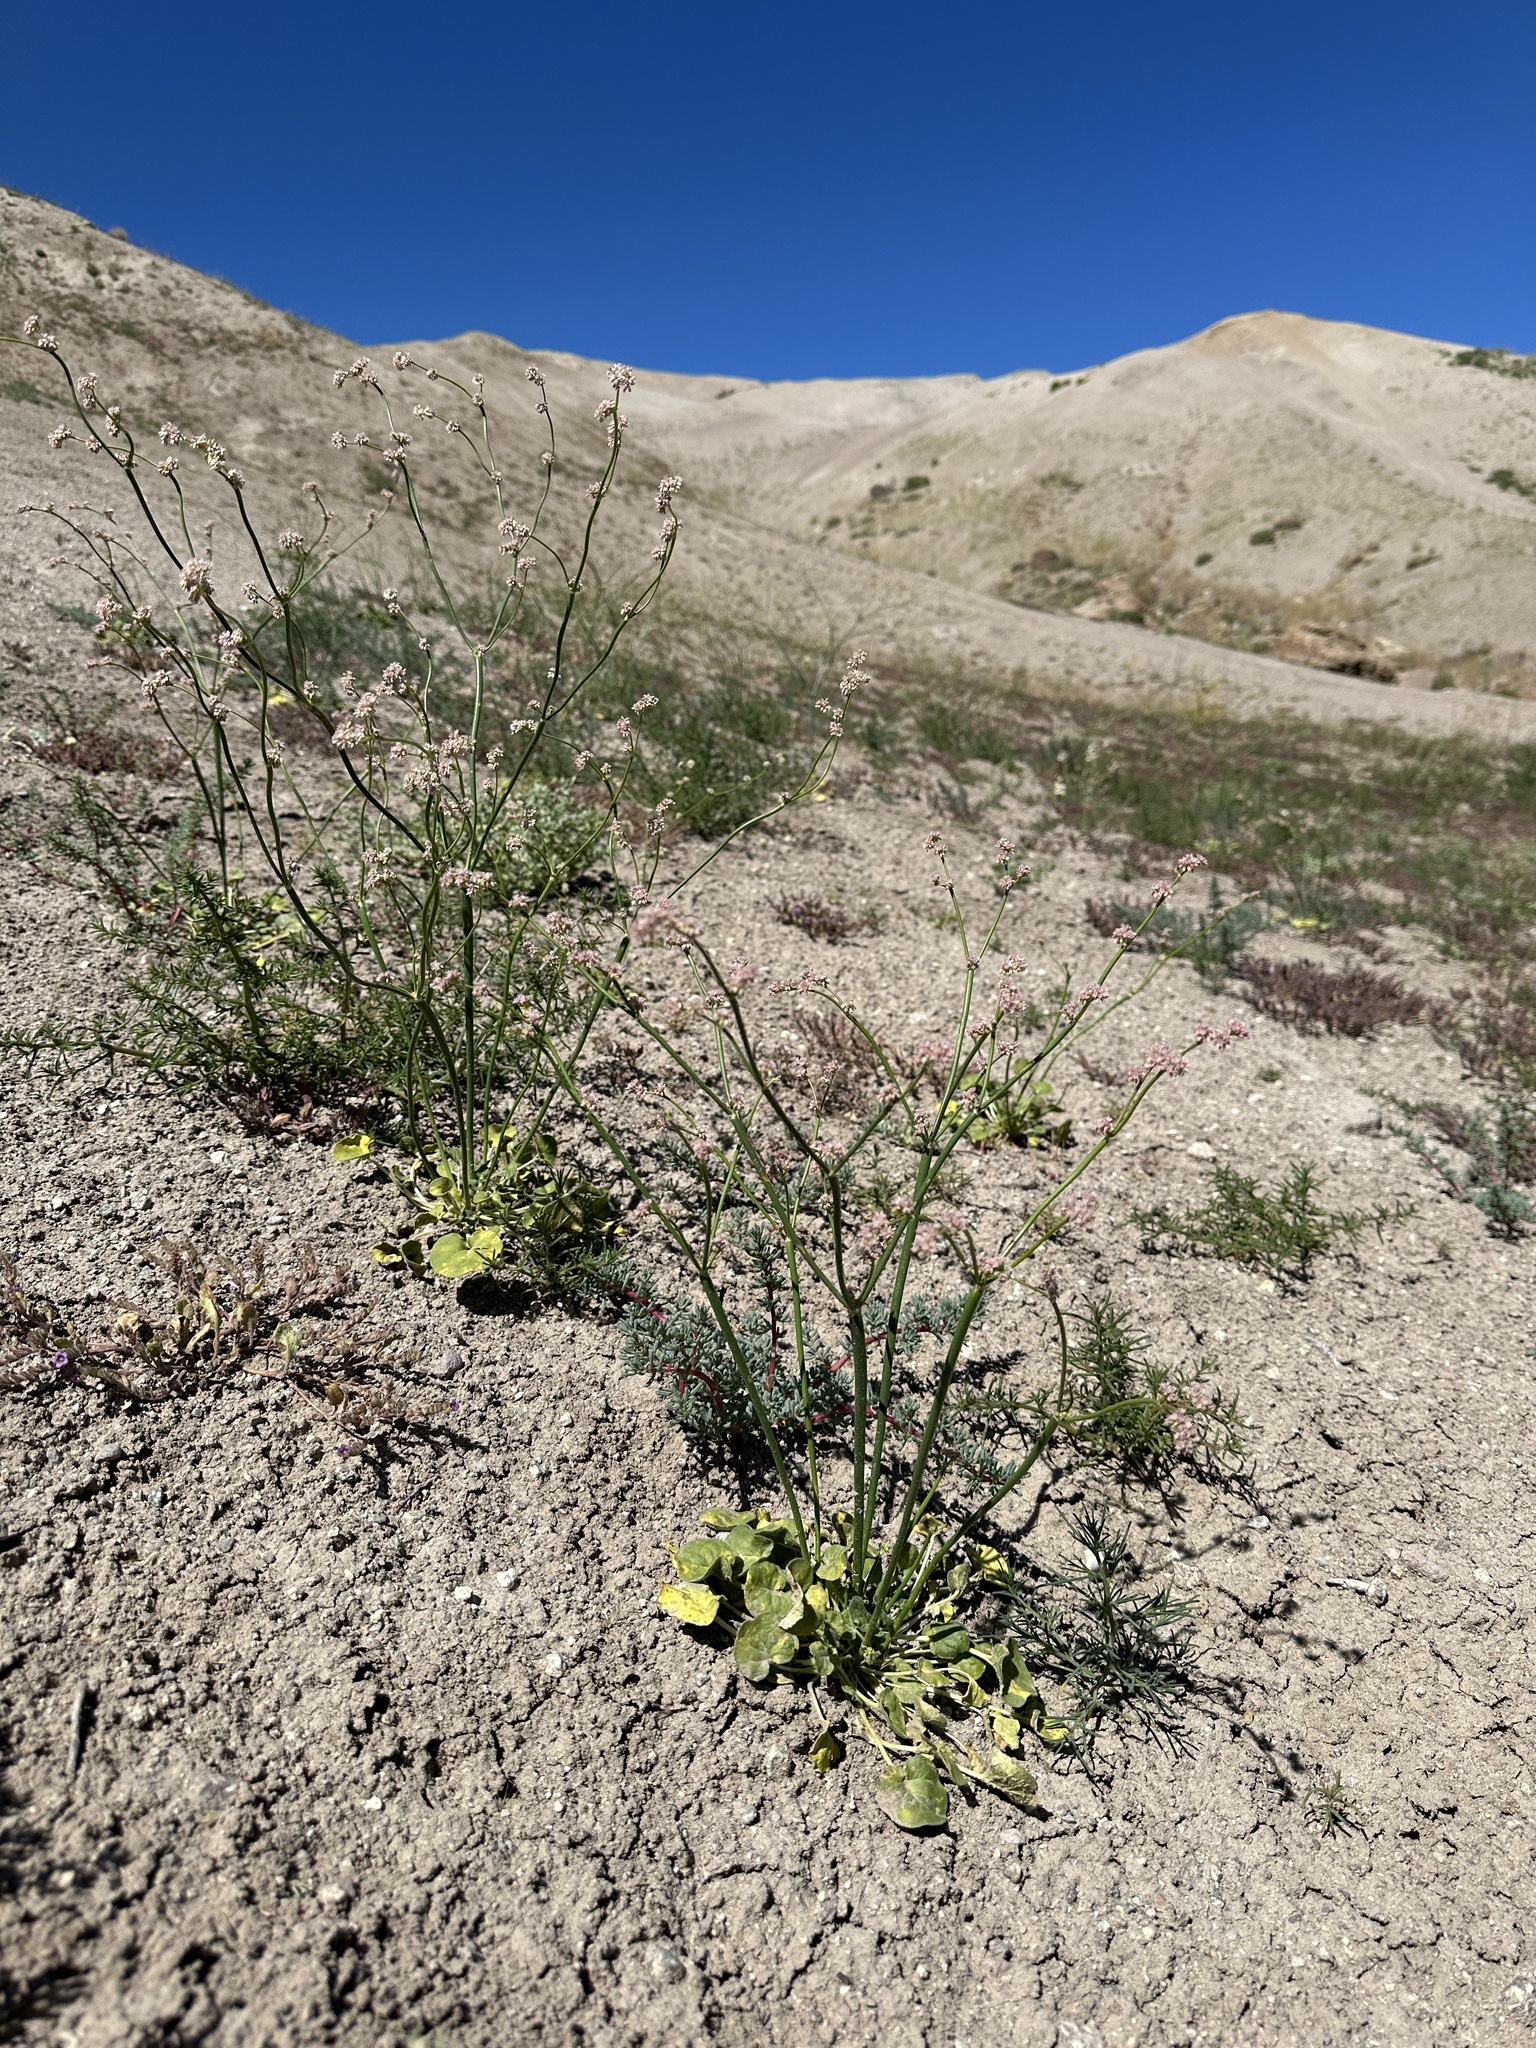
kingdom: Plantae
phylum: Tracheophyta
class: Magnoliopsida
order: Caryophyllales
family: Polygonaceae
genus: Eriogonum
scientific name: Eriogonum lemmonii
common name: Lemmon's wild buckwheat
